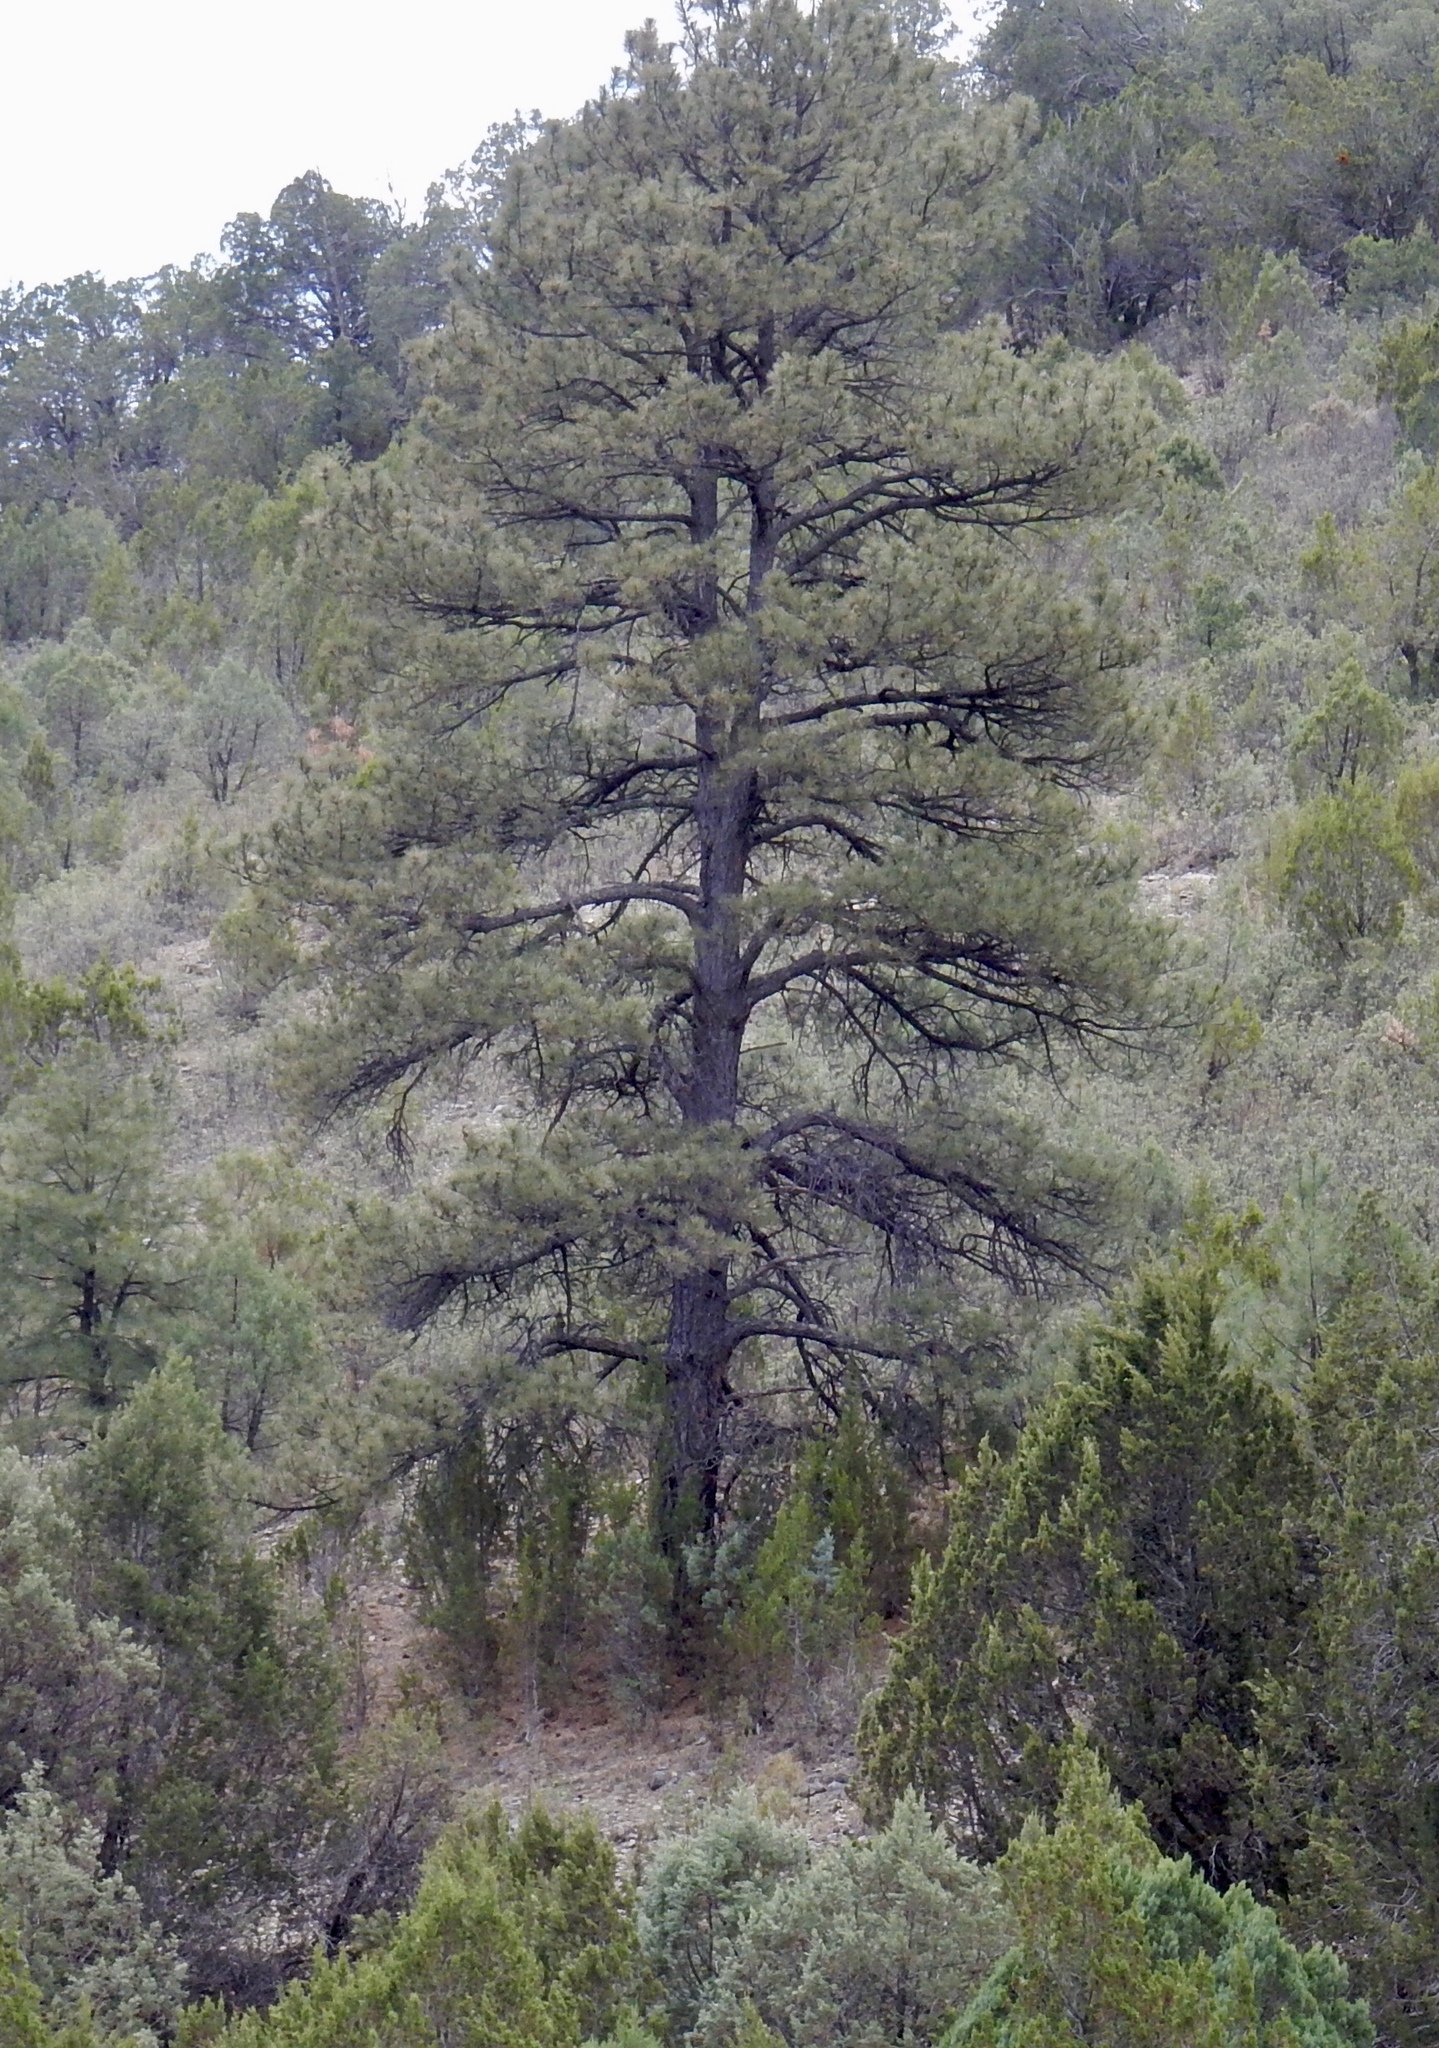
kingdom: Plantae
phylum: Tracheophyta
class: Pinopsida
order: Pinales
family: Pinaceae
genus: Pinus
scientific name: Pinus ponderosa
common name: Western yellow-pine
